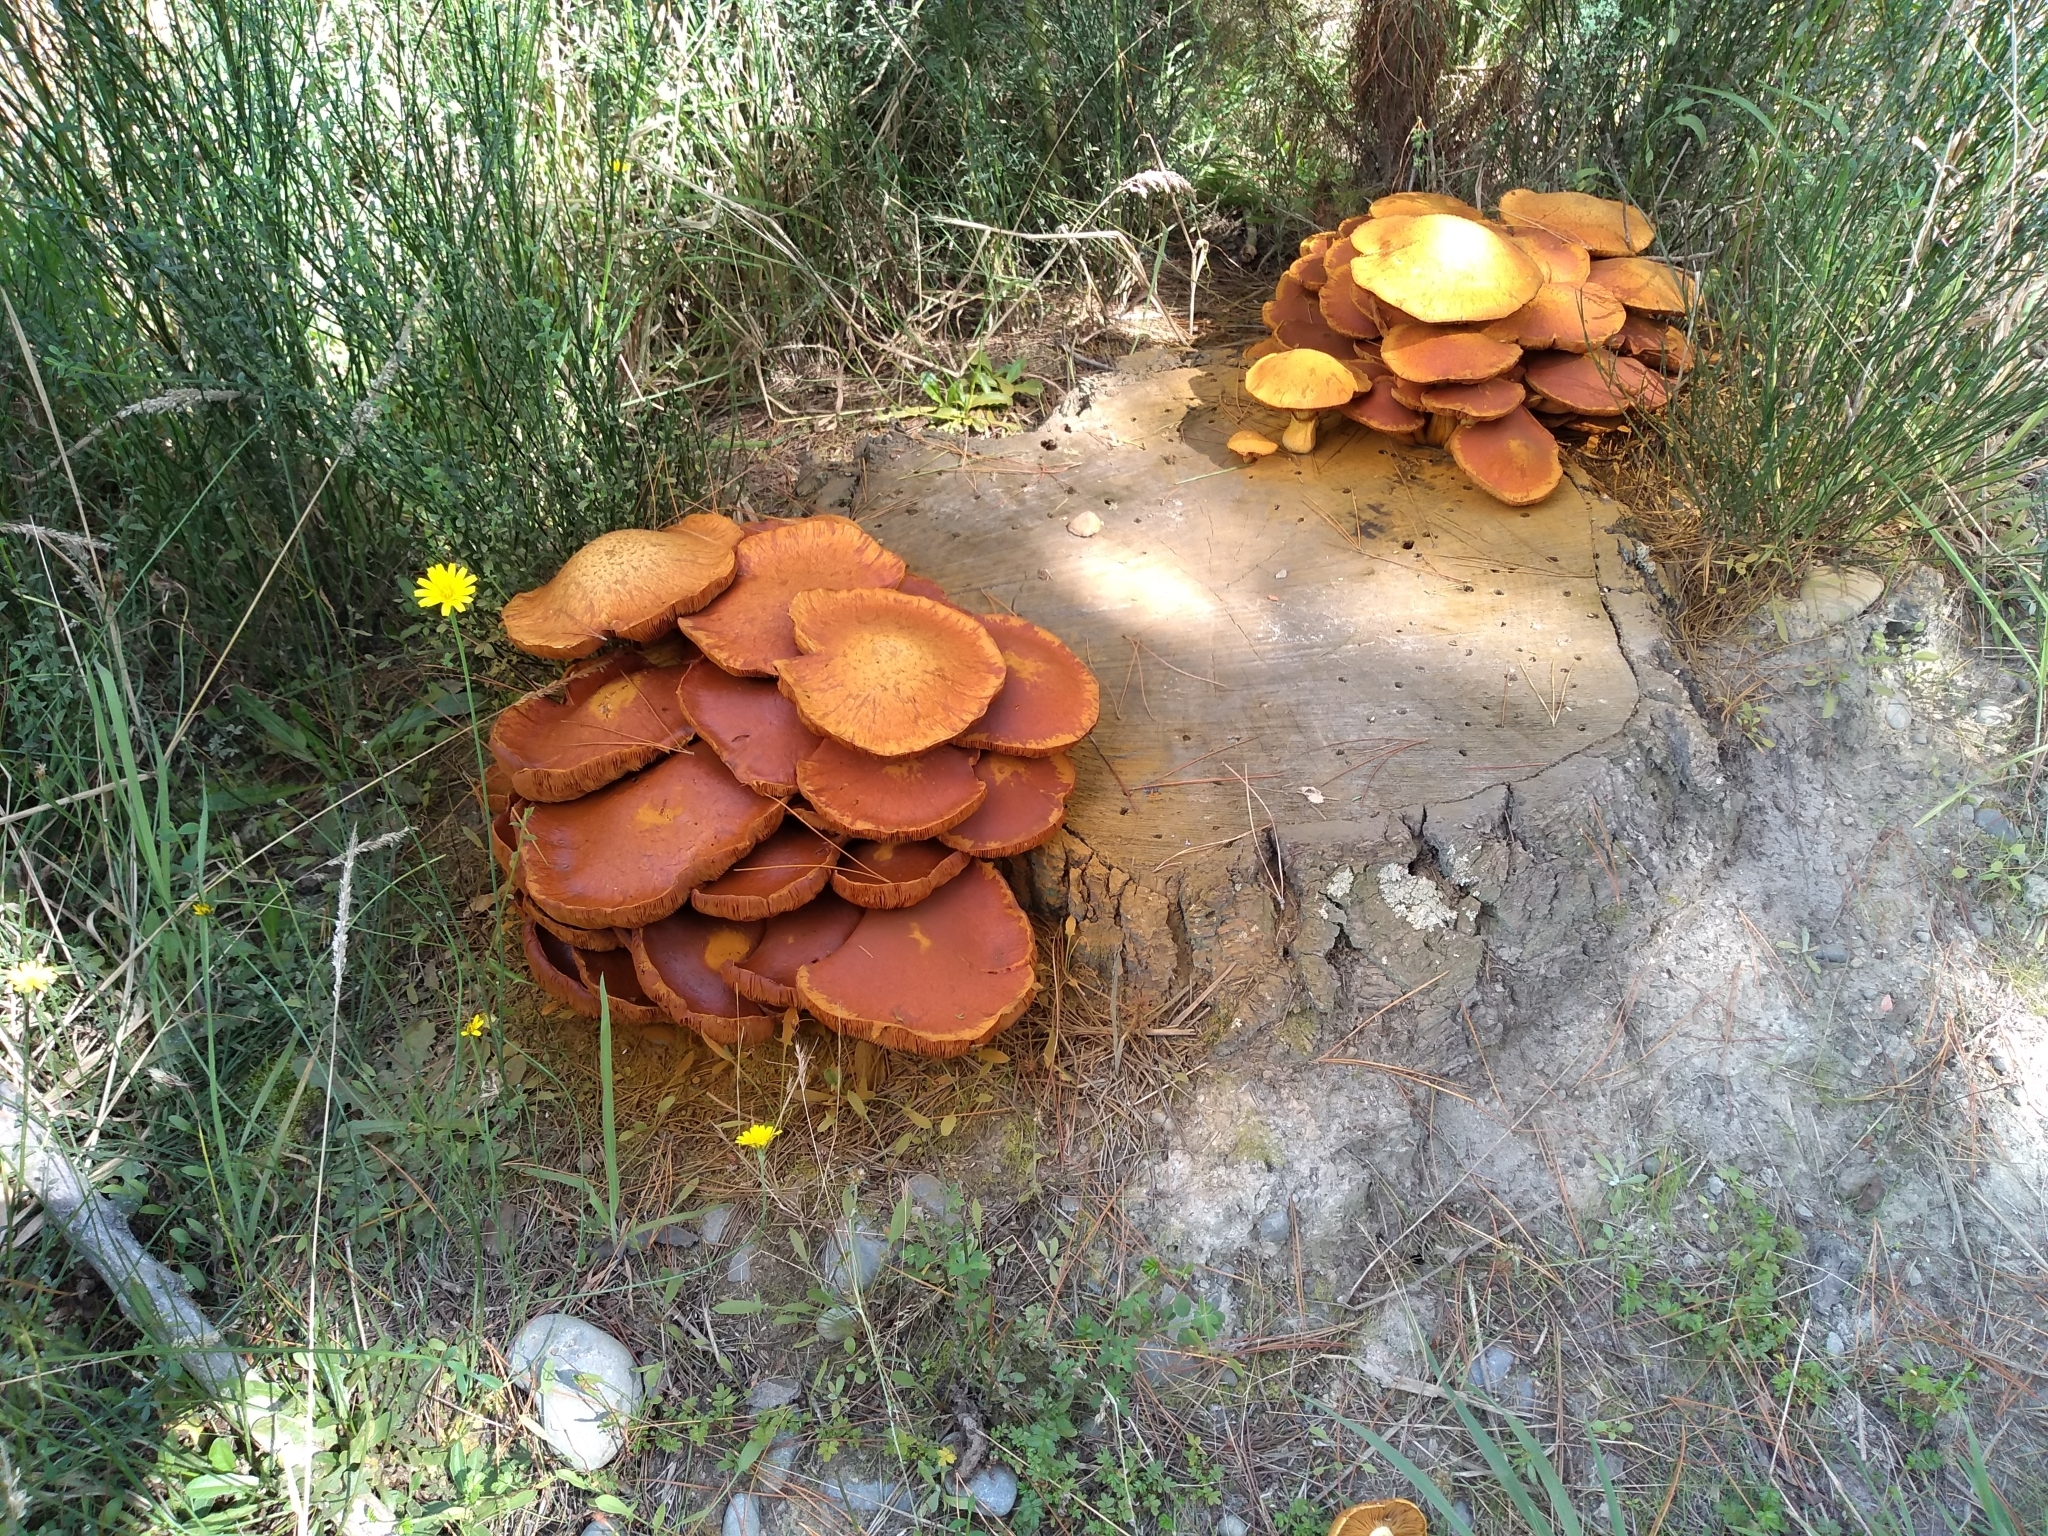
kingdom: Fungi
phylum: Basidiomycota
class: Agaricomycetes
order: Agaricales
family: Hymenogastraceae
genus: Gymnopilus
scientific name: Gymnopilus junonius
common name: Spectacular rustgill
